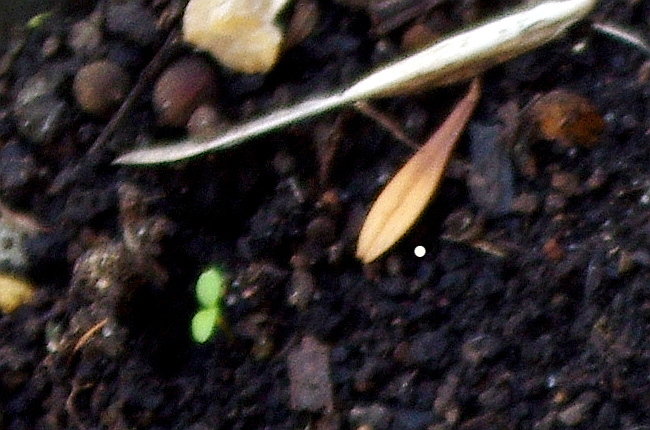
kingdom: Plantae
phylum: Tracheophyta
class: Magnoliopsida
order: Lamiales
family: Oleaceae
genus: Fraxinus
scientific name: Fraxinus pennsylvanica
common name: Green ash
